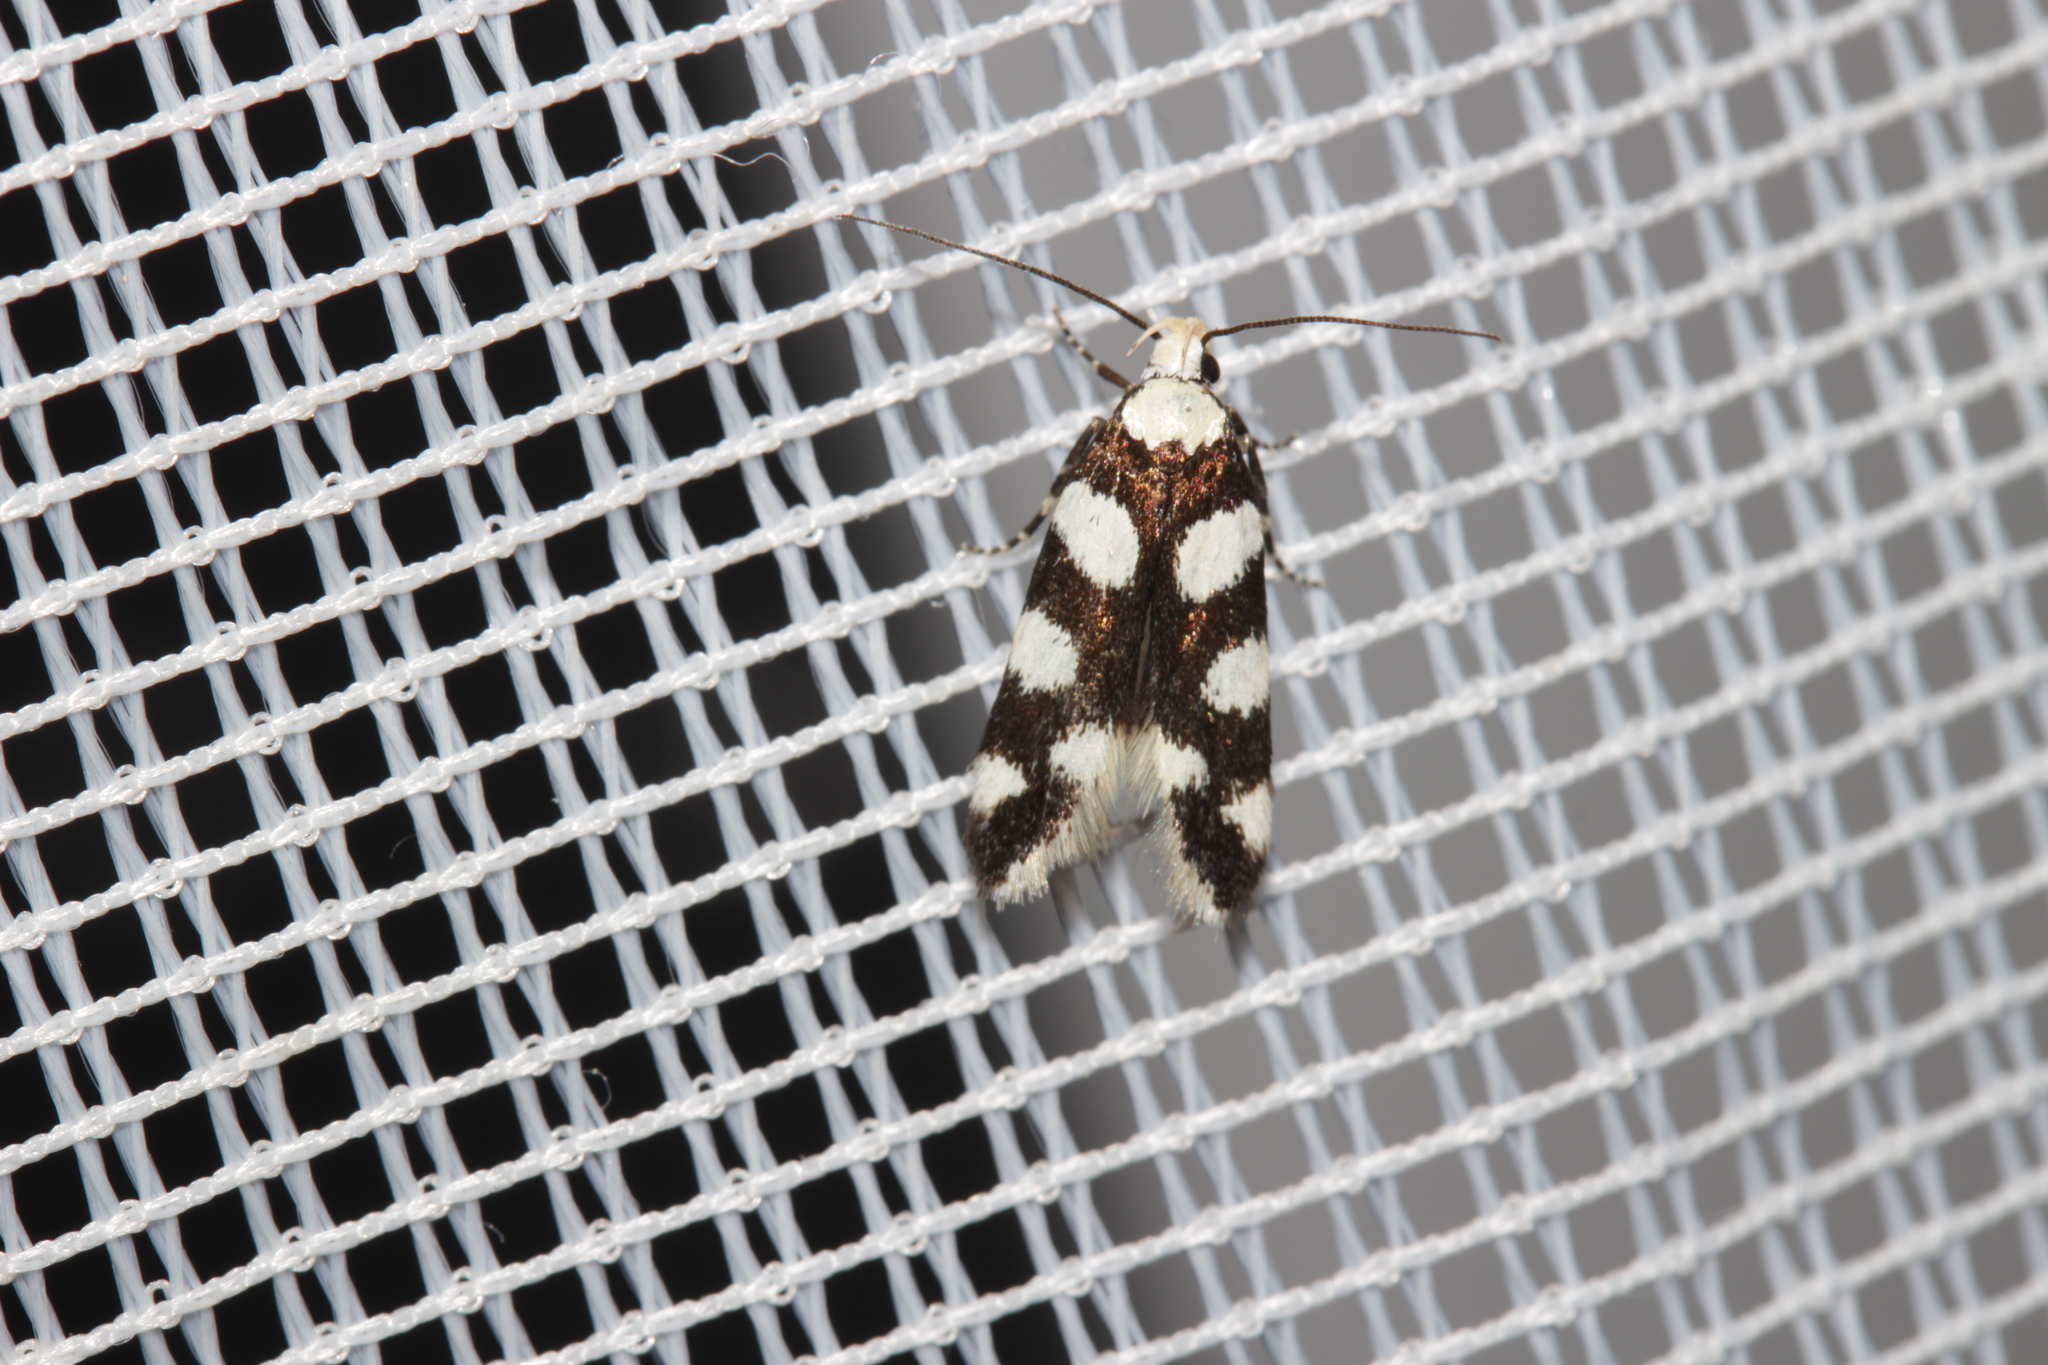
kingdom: Animalia
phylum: Arthropoda
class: Insecta
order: Lepidoptera
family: Gelechiidae
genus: Pseudotelphusa
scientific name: Pseudotelphusa tessella
